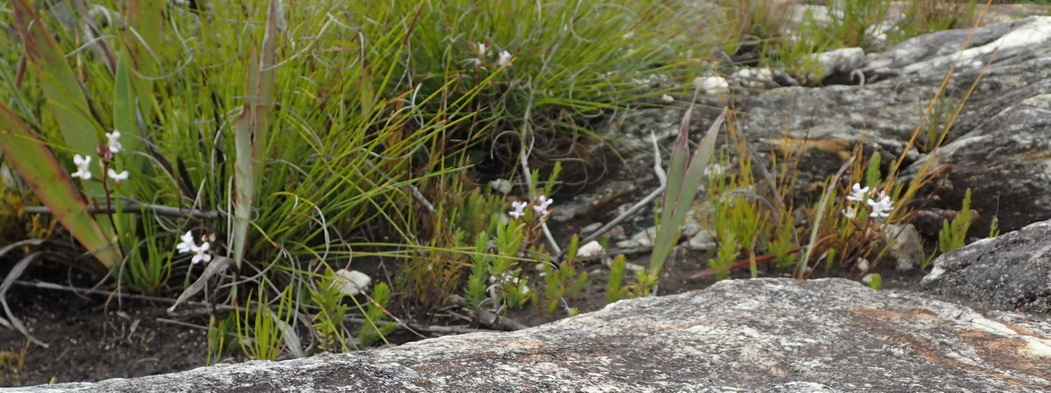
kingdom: Plantae
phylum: Tracheophyta
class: Liliopsida
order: Asparagales
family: Orchidaceae
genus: Disa
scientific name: Disa sagittalis
